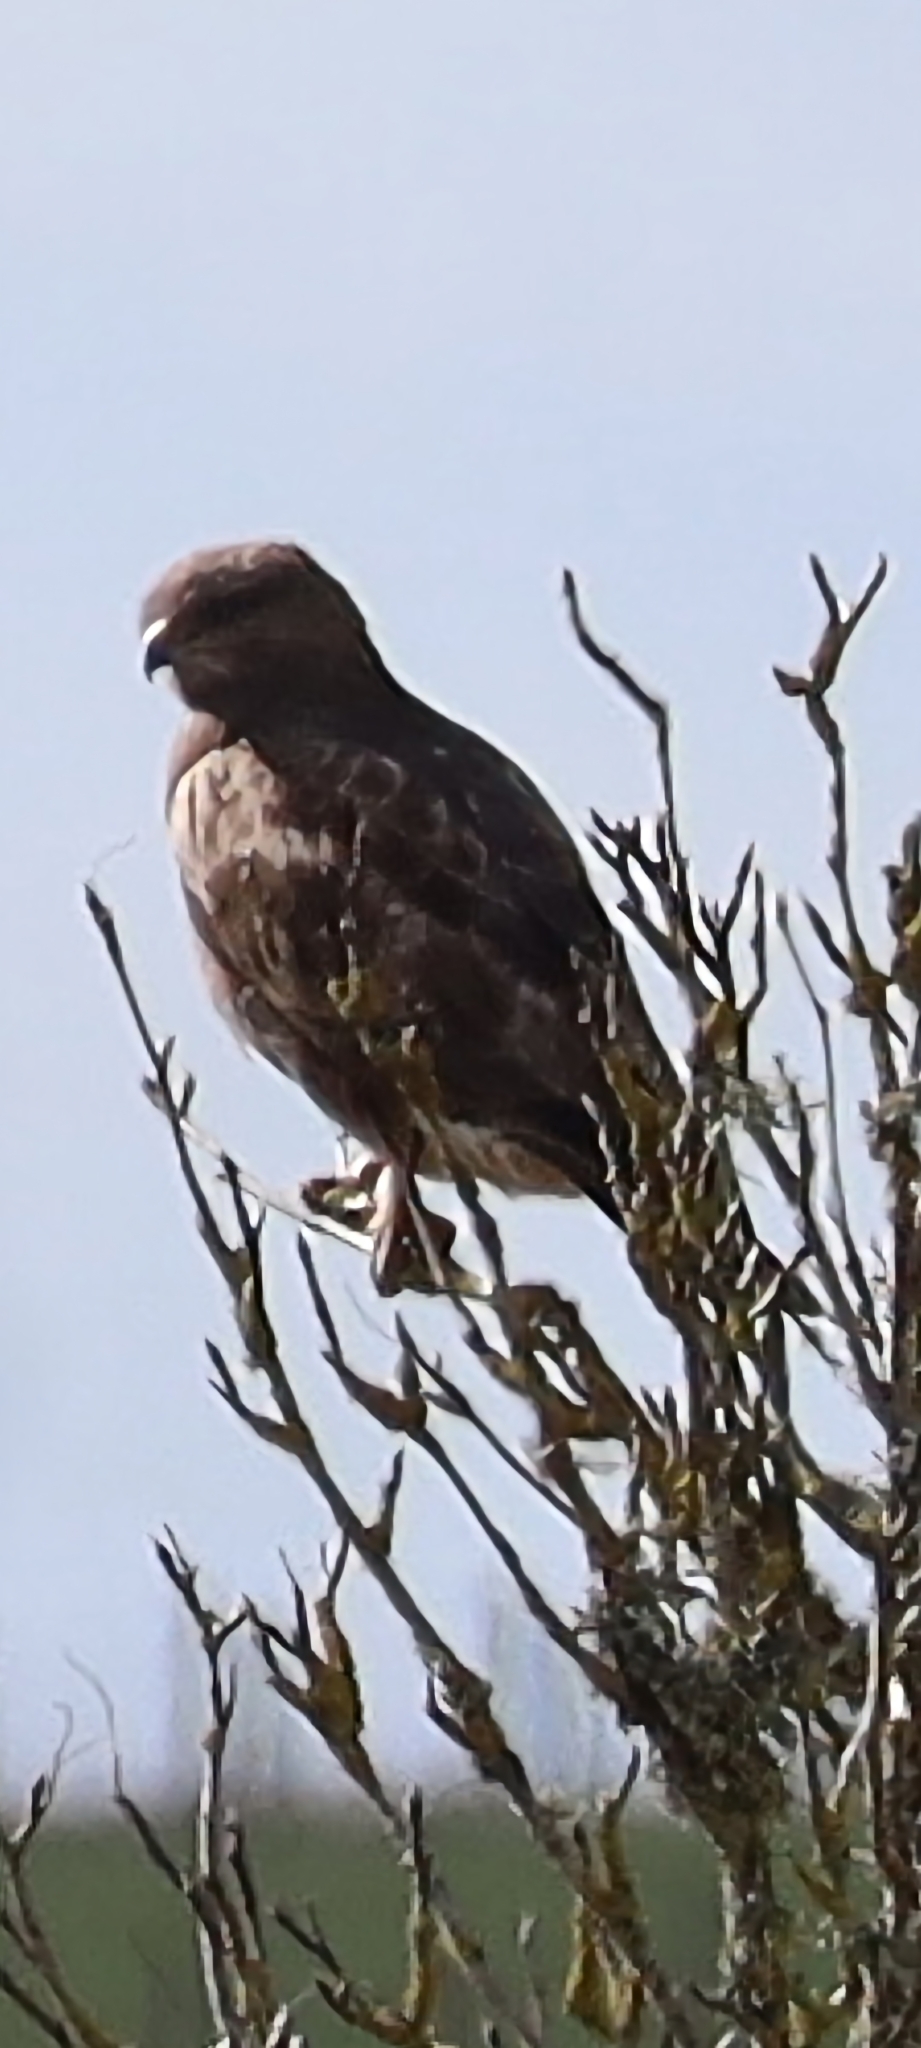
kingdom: Animalia
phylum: Chordata
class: Aves
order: Accipitriformes
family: Accipitridae
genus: Buteo
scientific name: Buteo buteo
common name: Common buzzard
